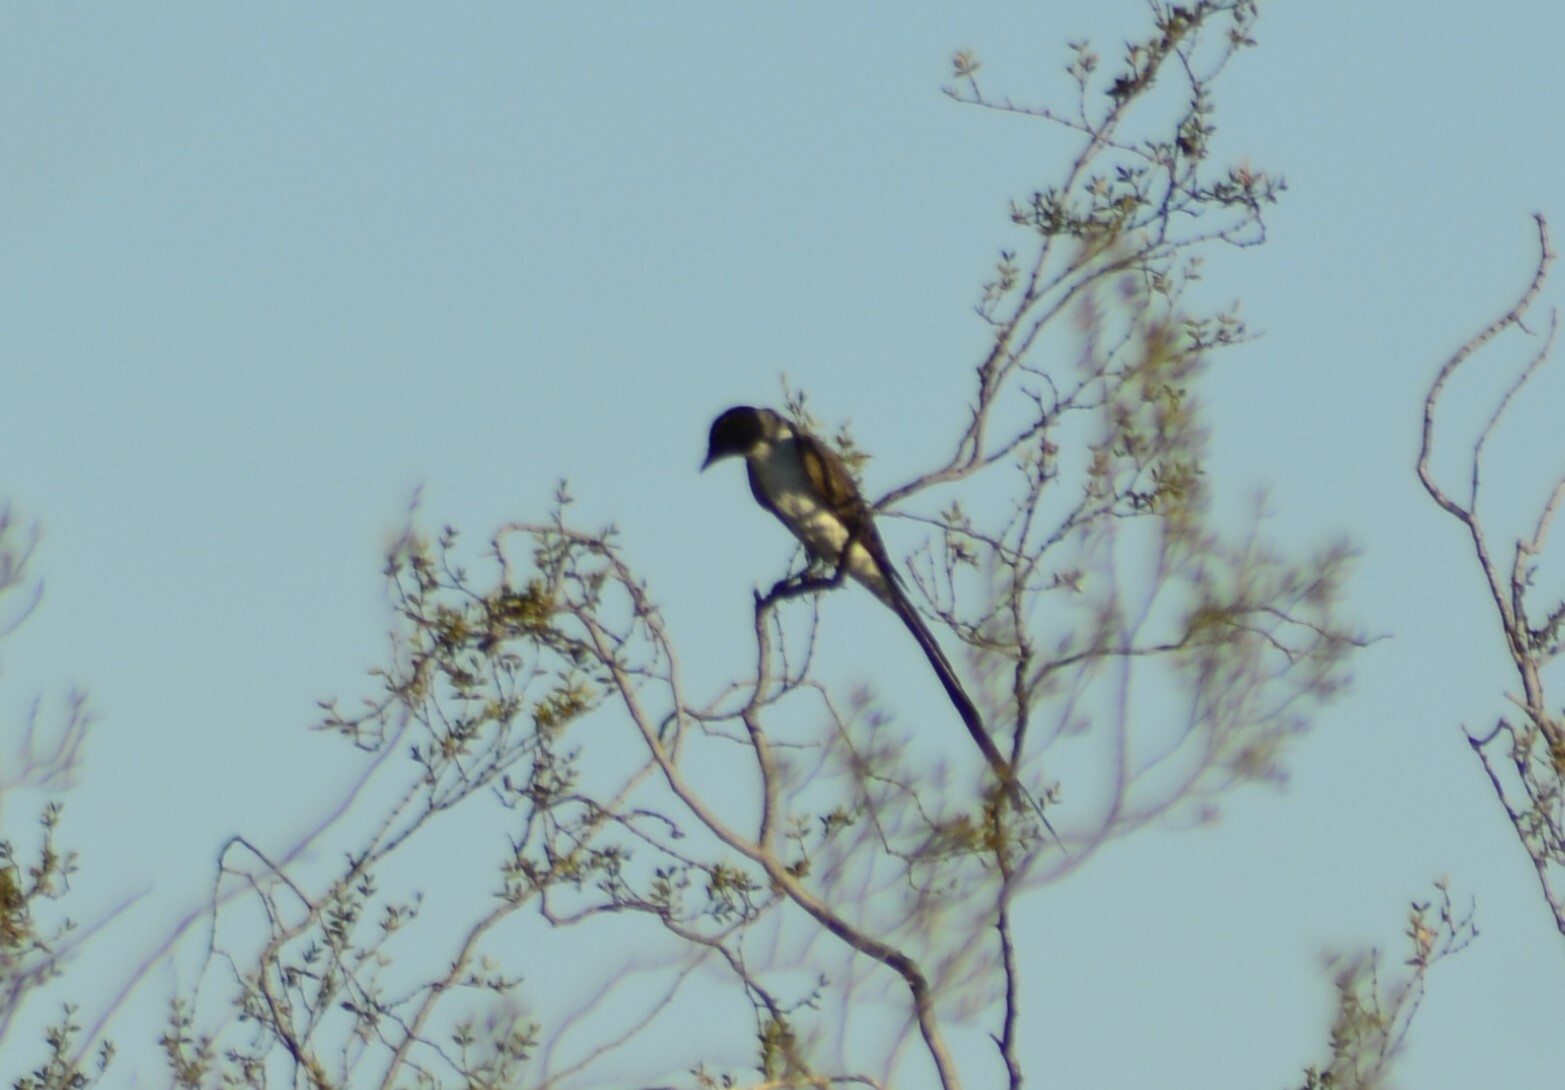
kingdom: Animalia
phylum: Chordata
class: Aves
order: Passeriformes
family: Tyrannidae
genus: Tyrannus
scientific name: Tyrannus savana
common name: Fork-tailed flycatcher
